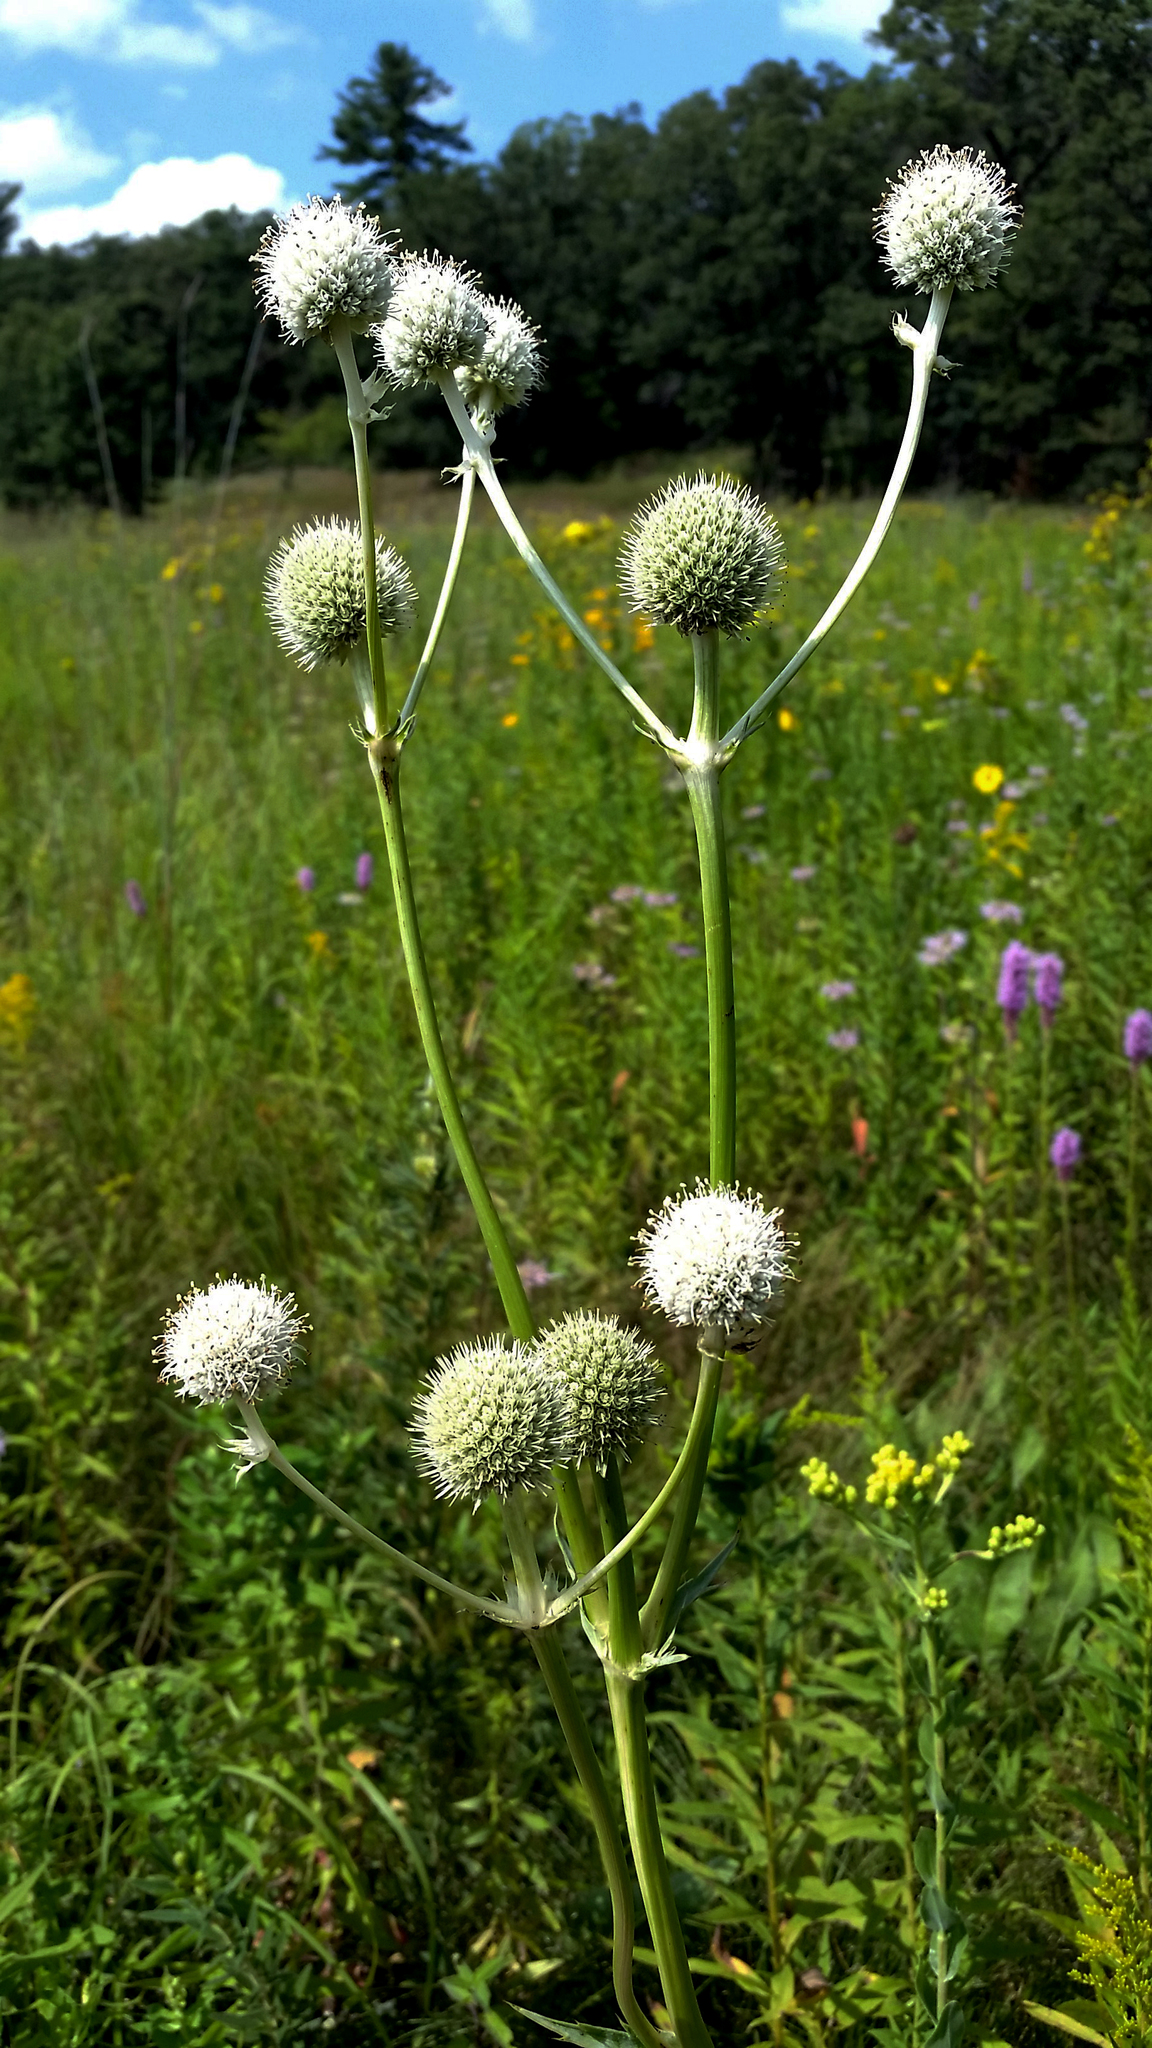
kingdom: Plantae
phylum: Tracheophyta
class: Magnoliopsida
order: Apiales
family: Apiaceae
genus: Eryngium
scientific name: Eryngium yuccifolium
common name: Button eryngo
